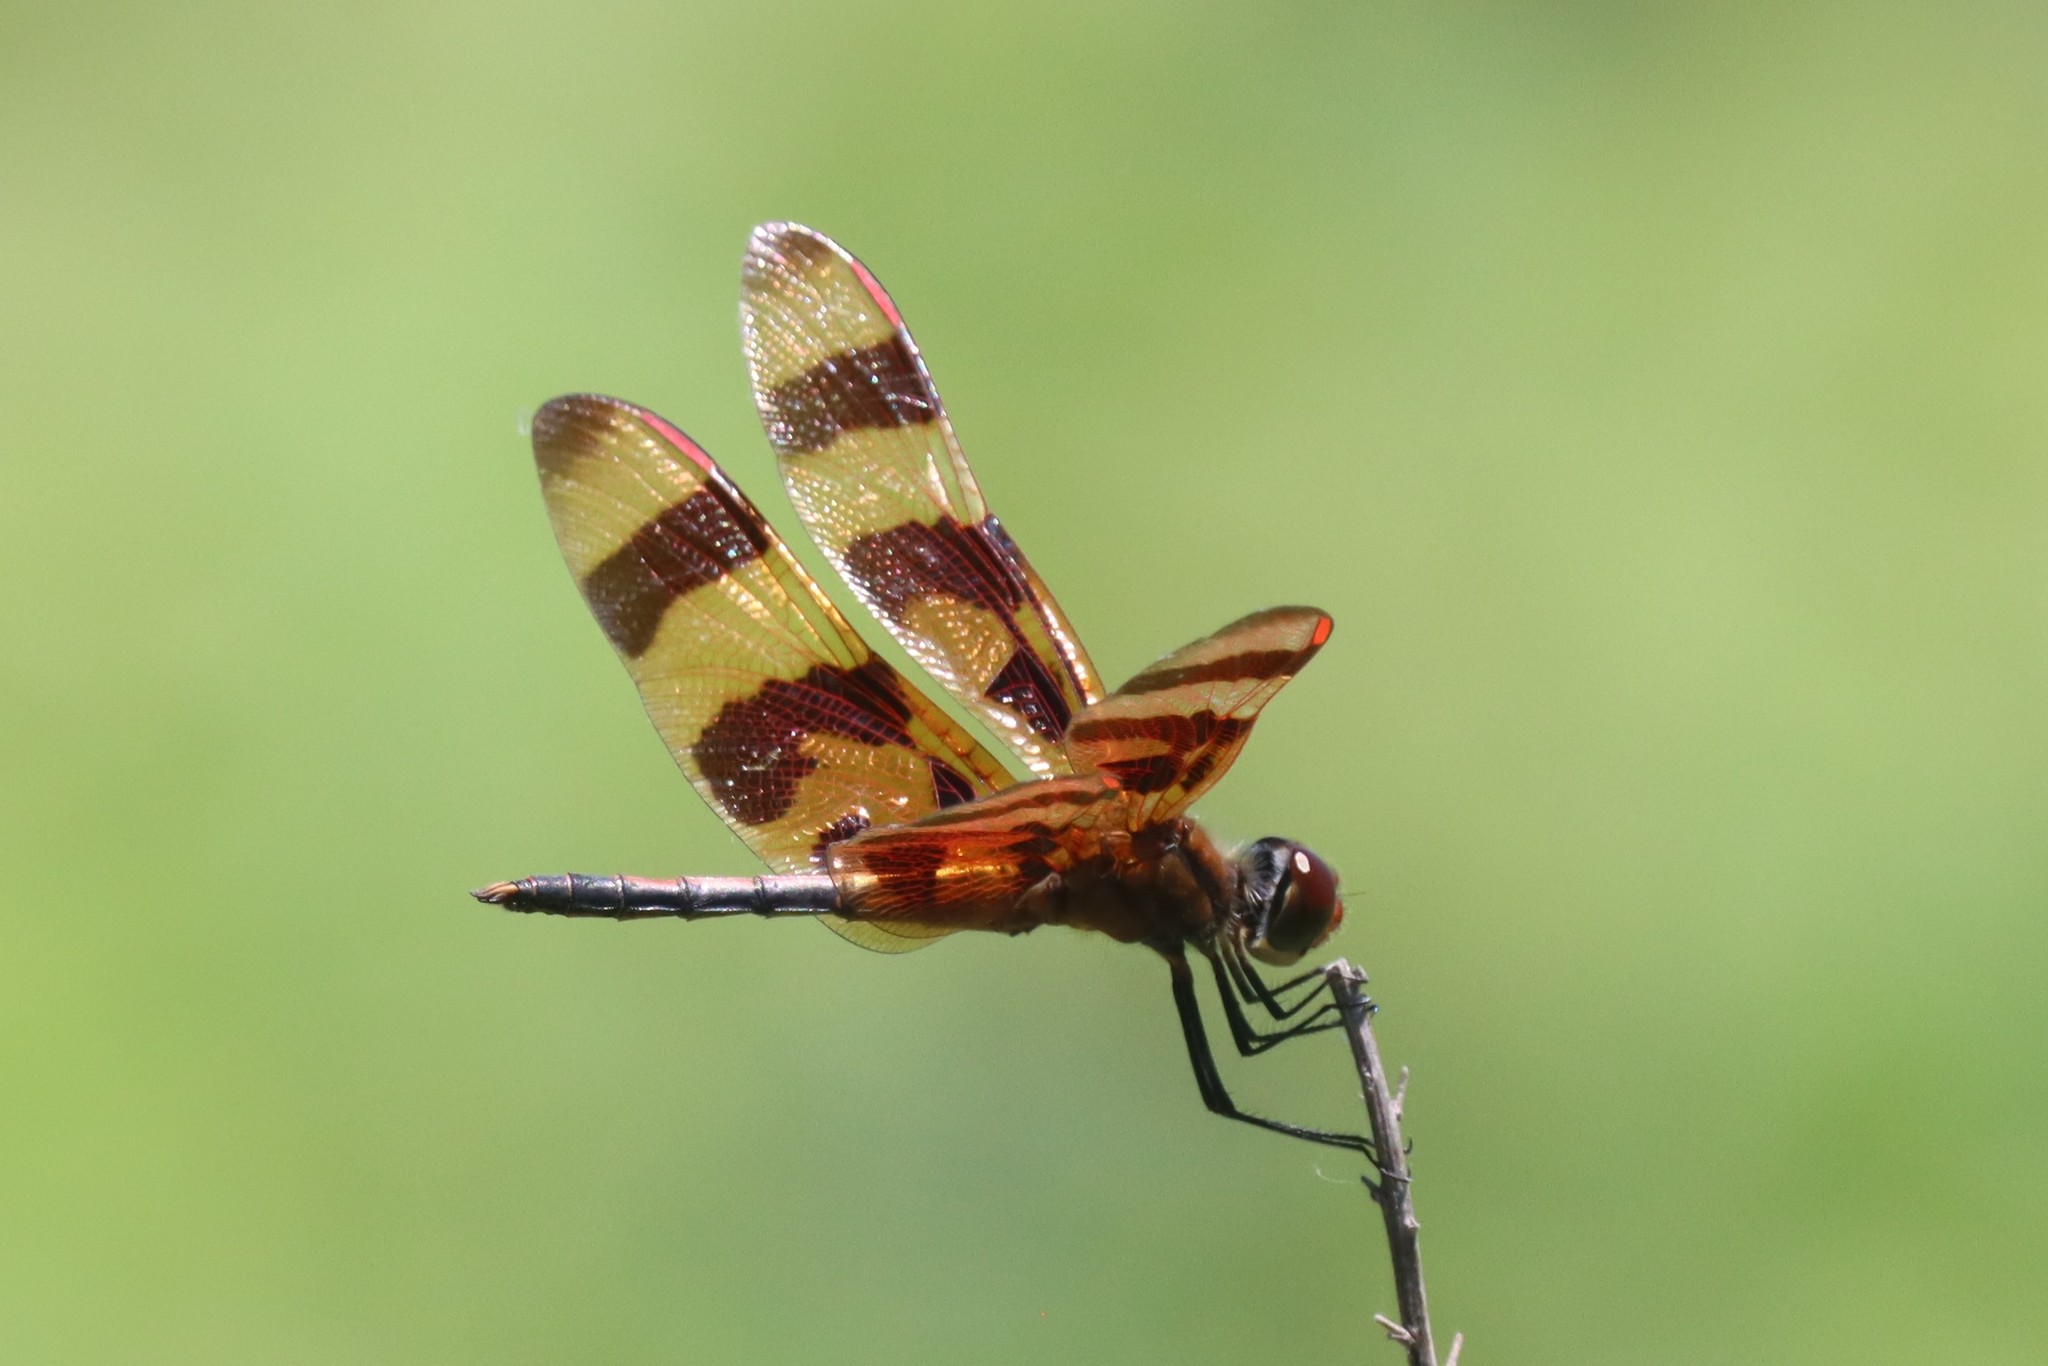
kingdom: Animalia
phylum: Arthropoda
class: Insecta
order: Odonata
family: Libellulidae
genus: Celithemis
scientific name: Celithemis eponina
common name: Halloween pennant
